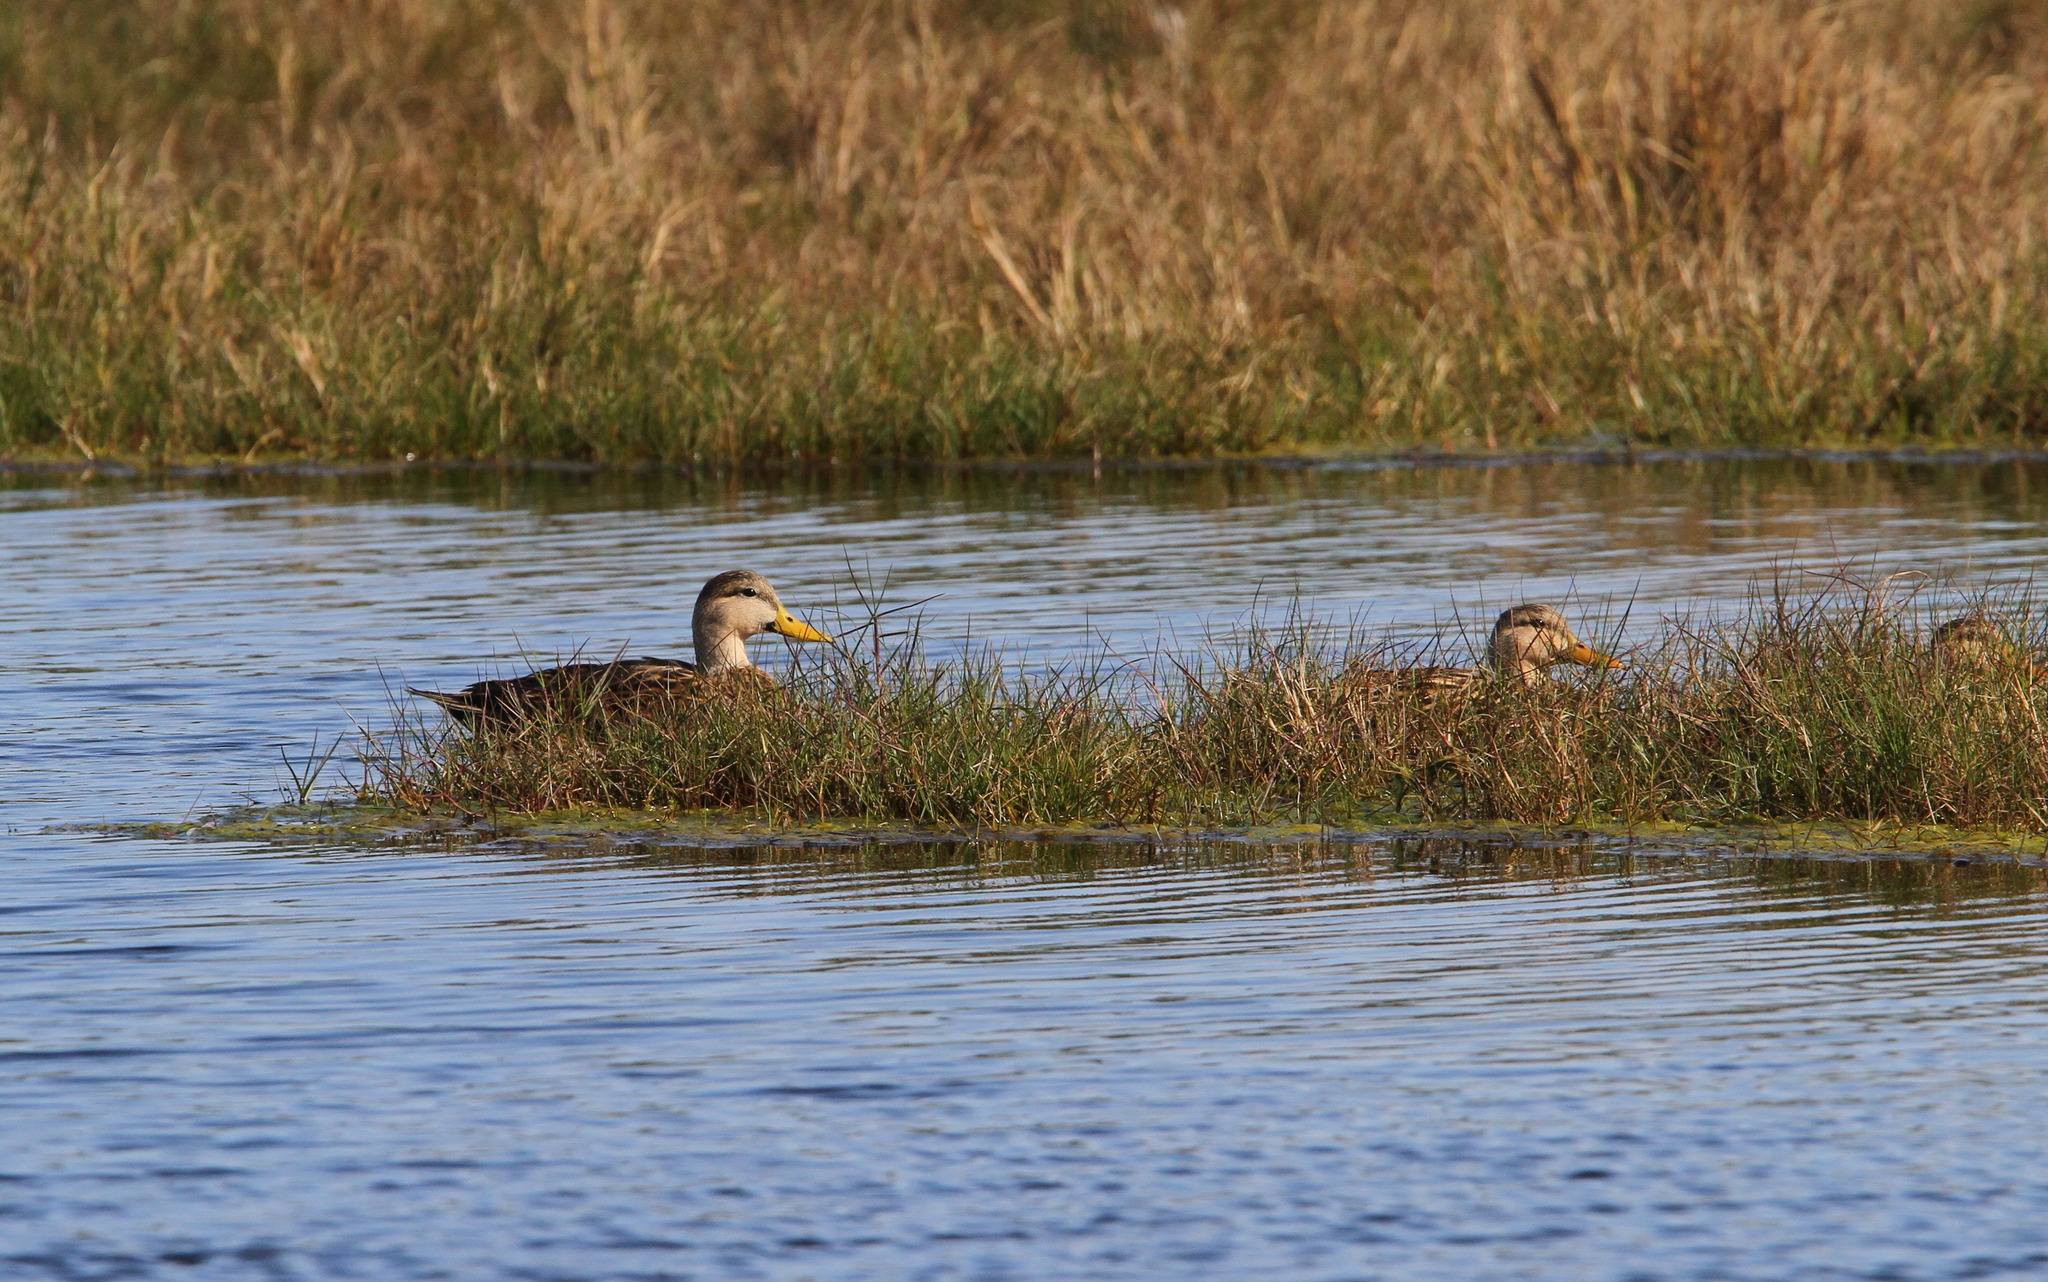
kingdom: Animalia
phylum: Chordata
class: Aves
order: Anseriformes
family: Anatidae
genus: Anas
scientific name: Anas fulvigula
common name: Mottled duck
